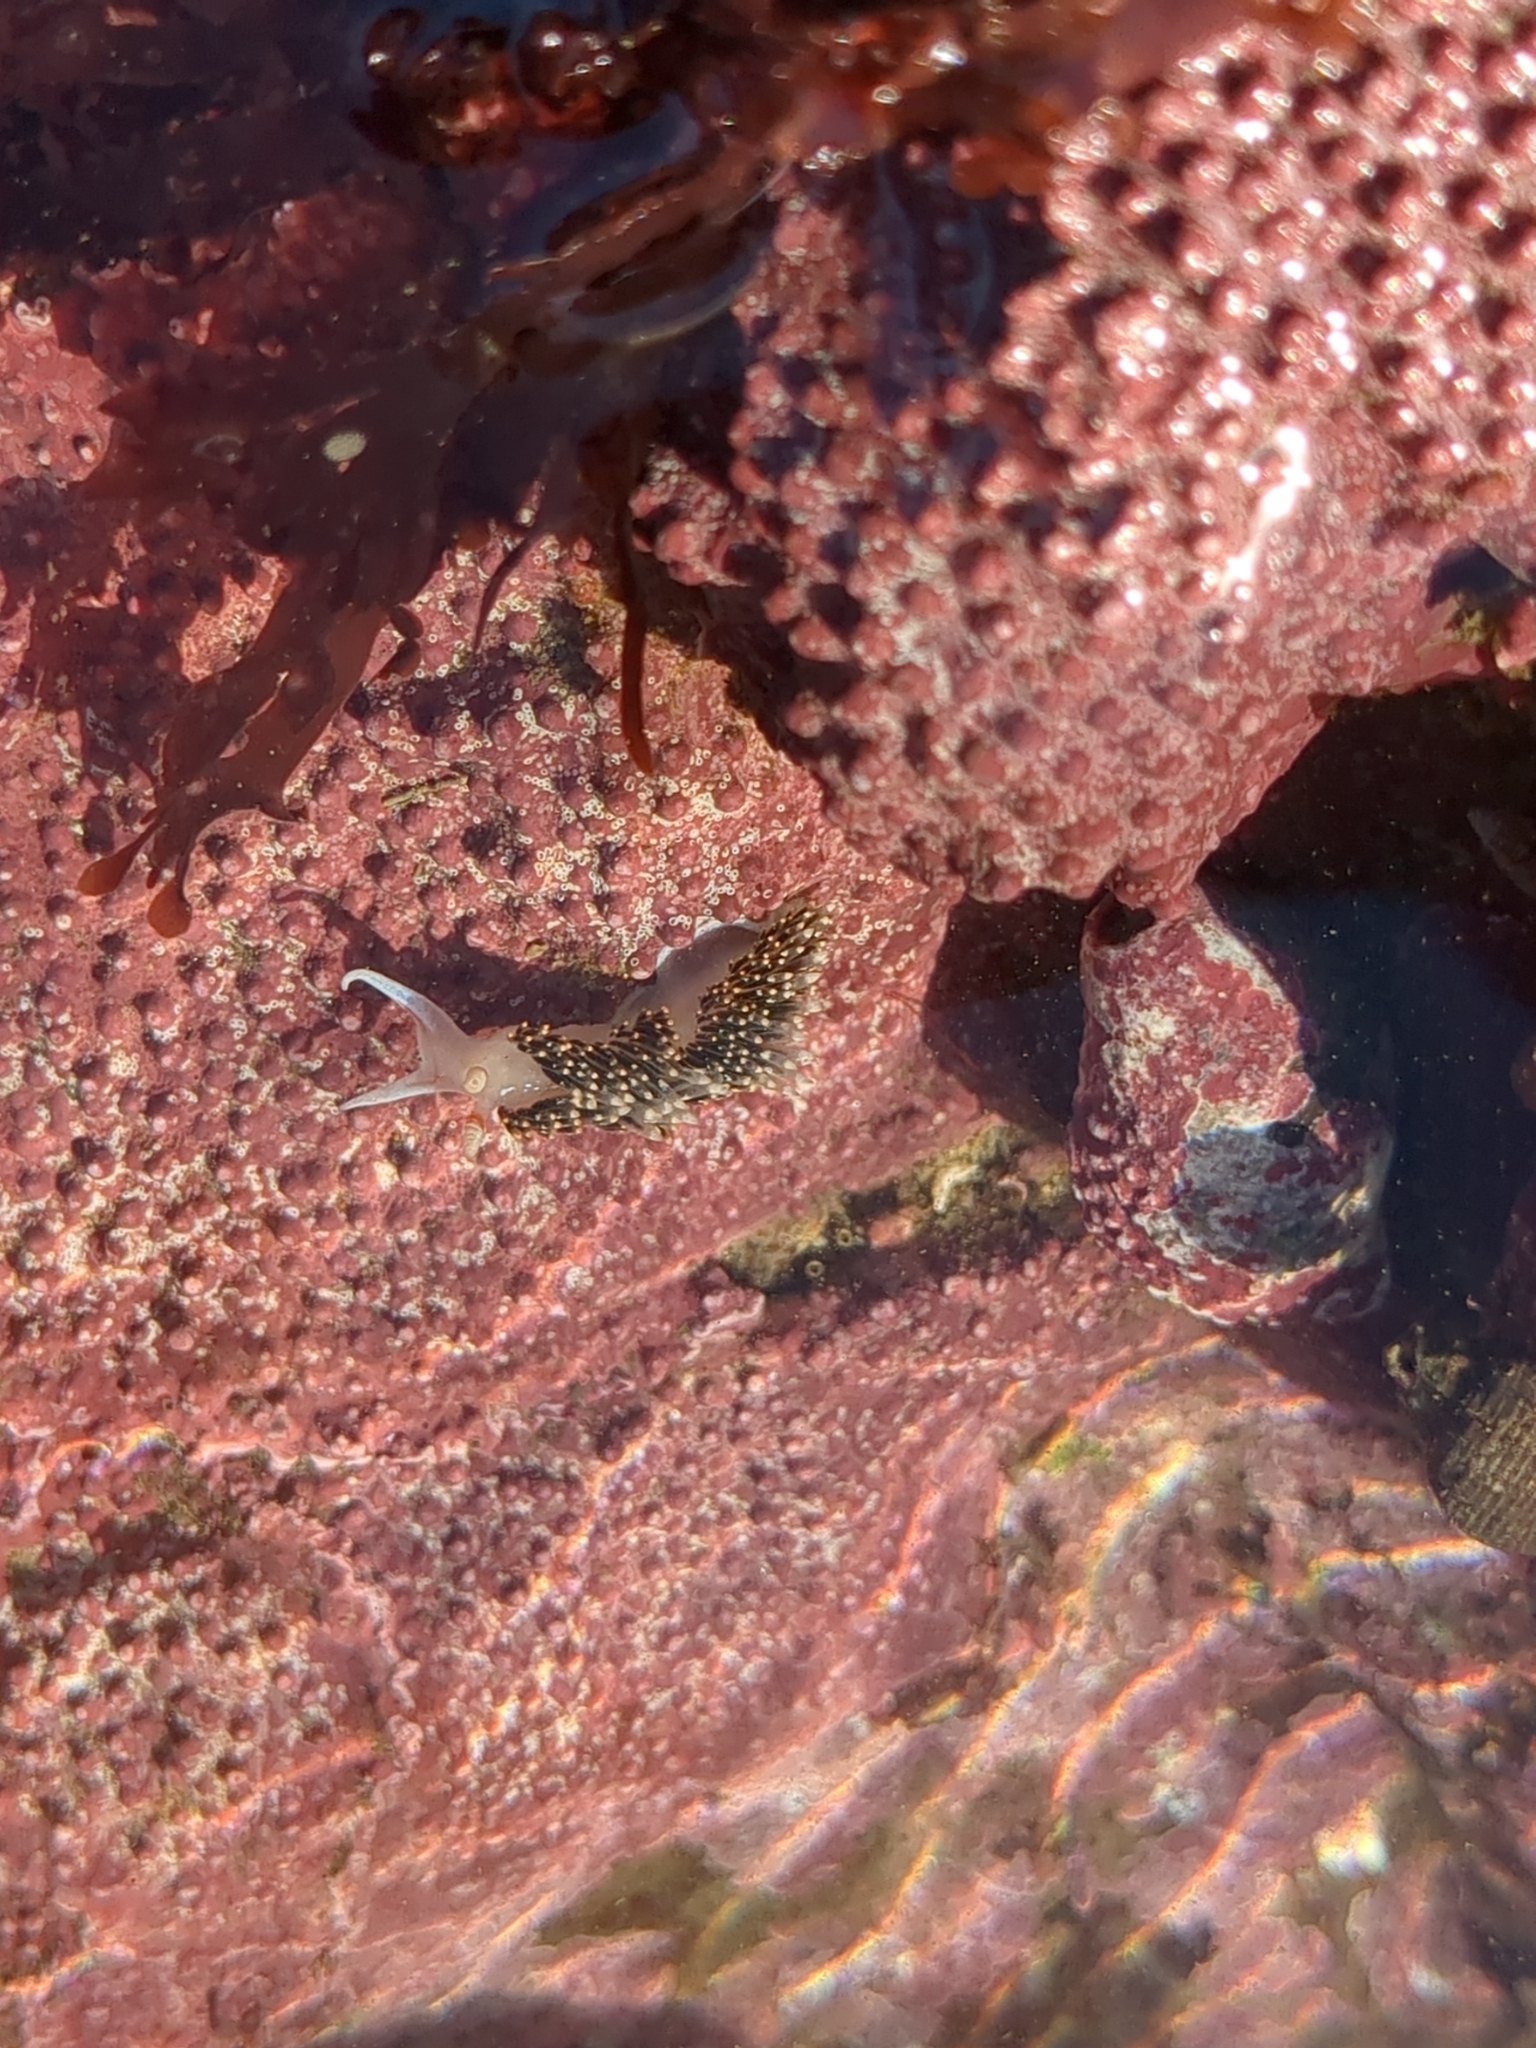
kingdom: Animalia
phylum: Mollusca
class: Gastropoda
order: Nudibranchia
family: Facelinidae
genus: Phidiana
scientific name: Phidiana hiltoni
